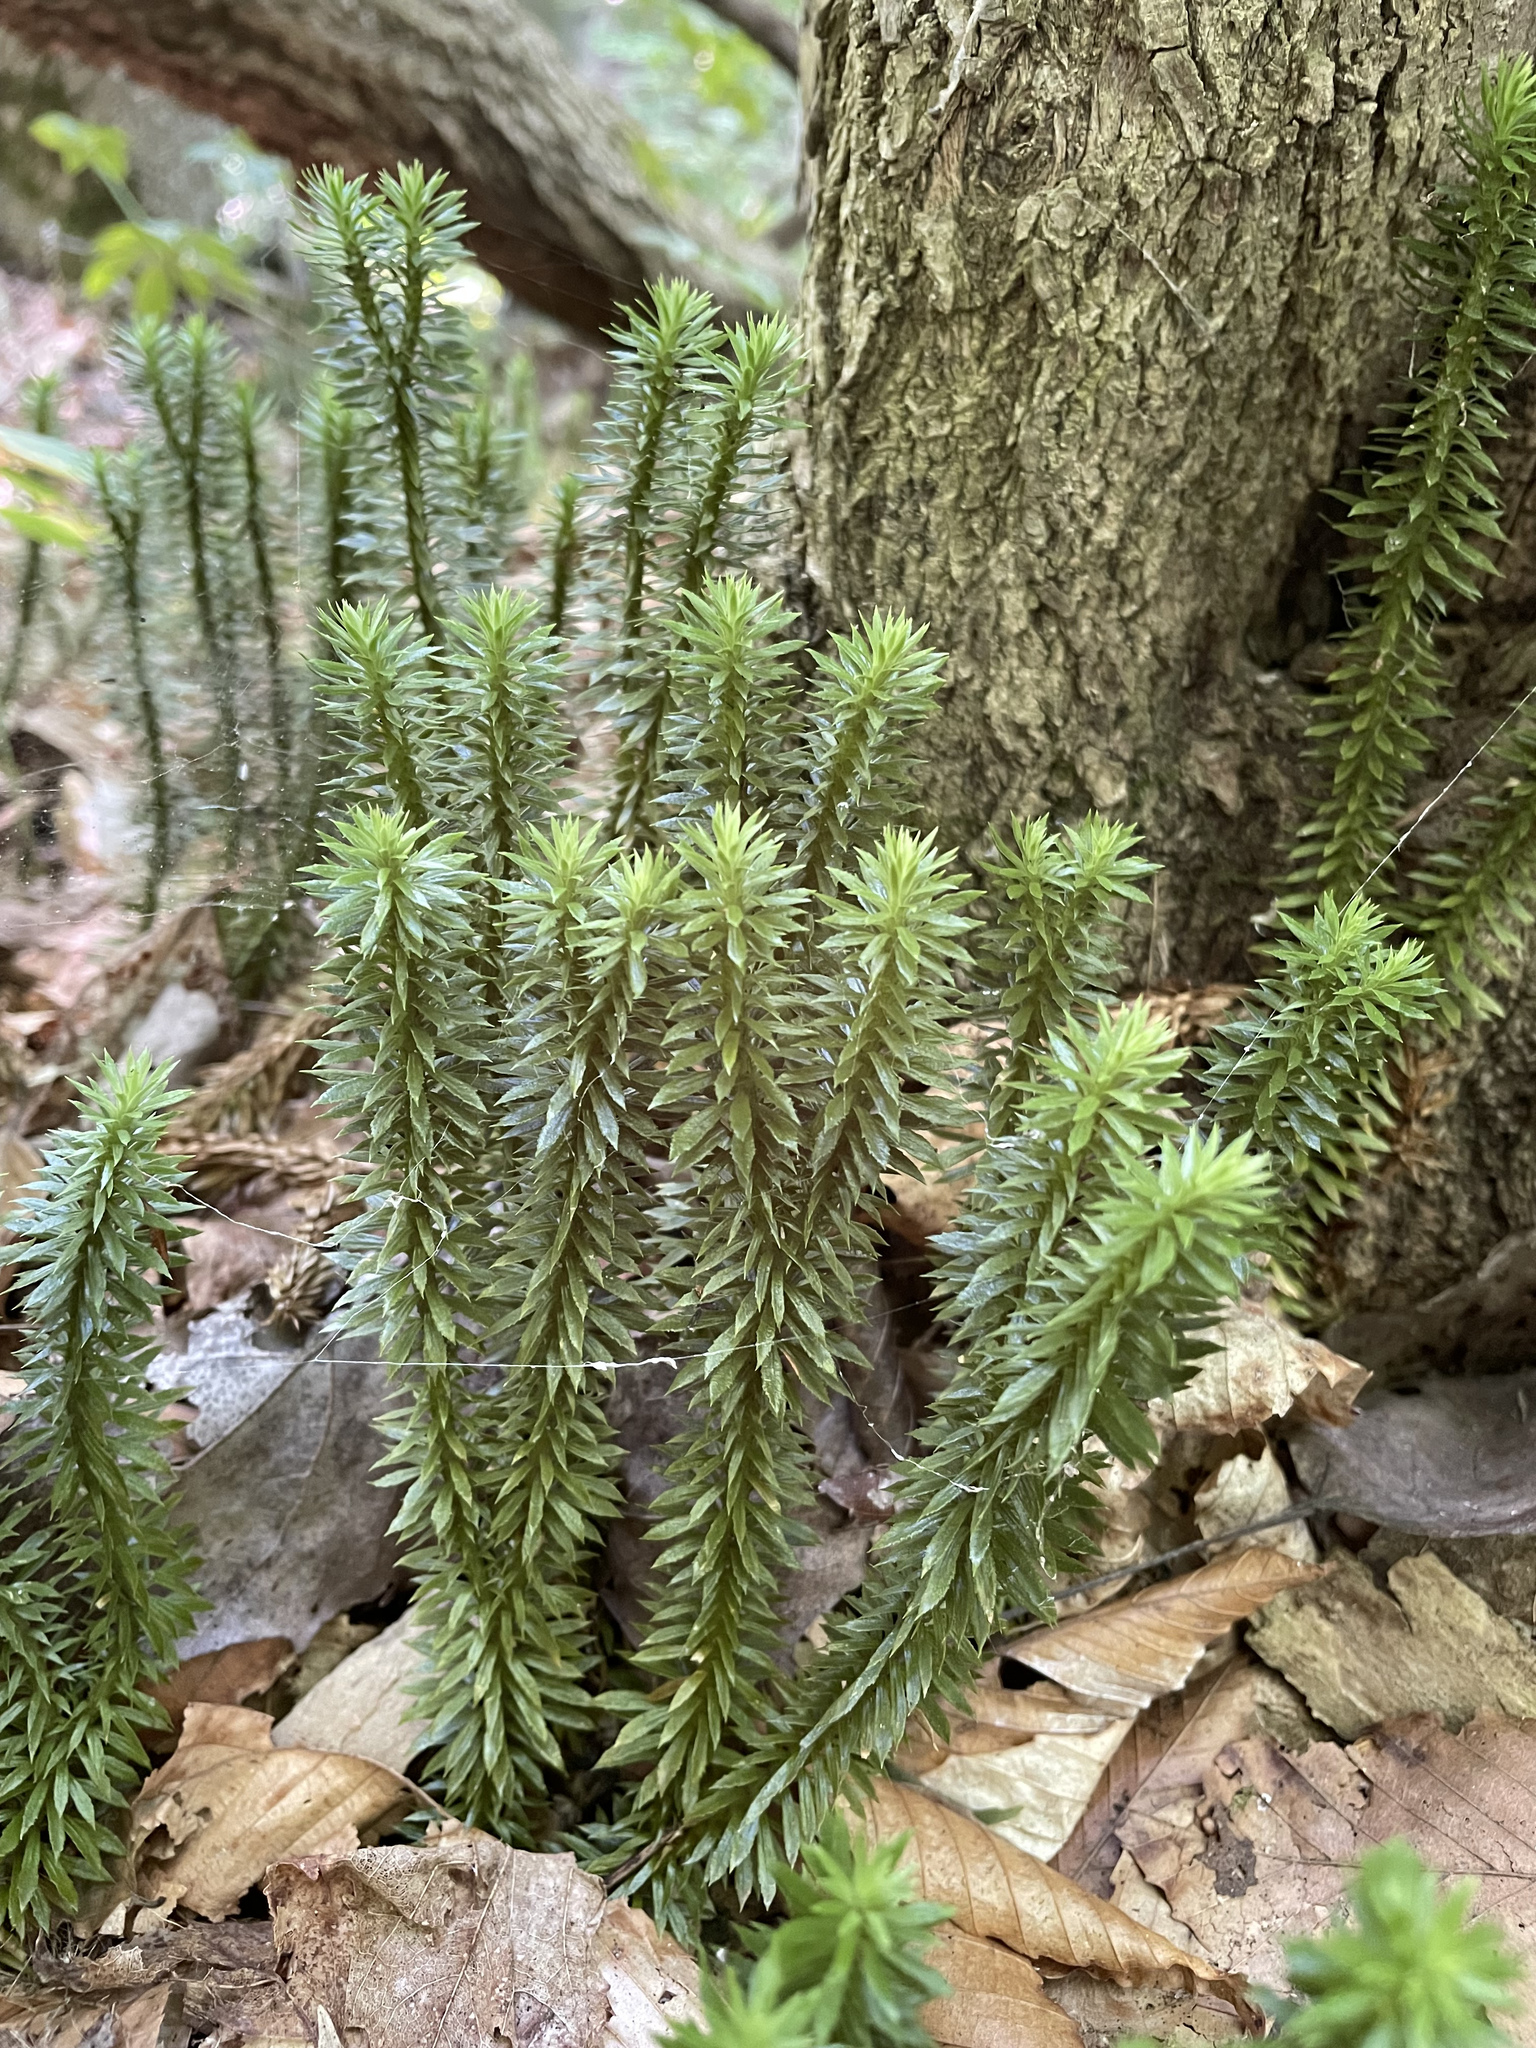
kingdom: Plantae
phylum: Tracheophyta
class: Lycopodiopsida
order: Lycopodiales
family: Lycopodiaceae
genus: Huperzia
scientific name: Huperzia lucidula
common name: Shining clubmoss
